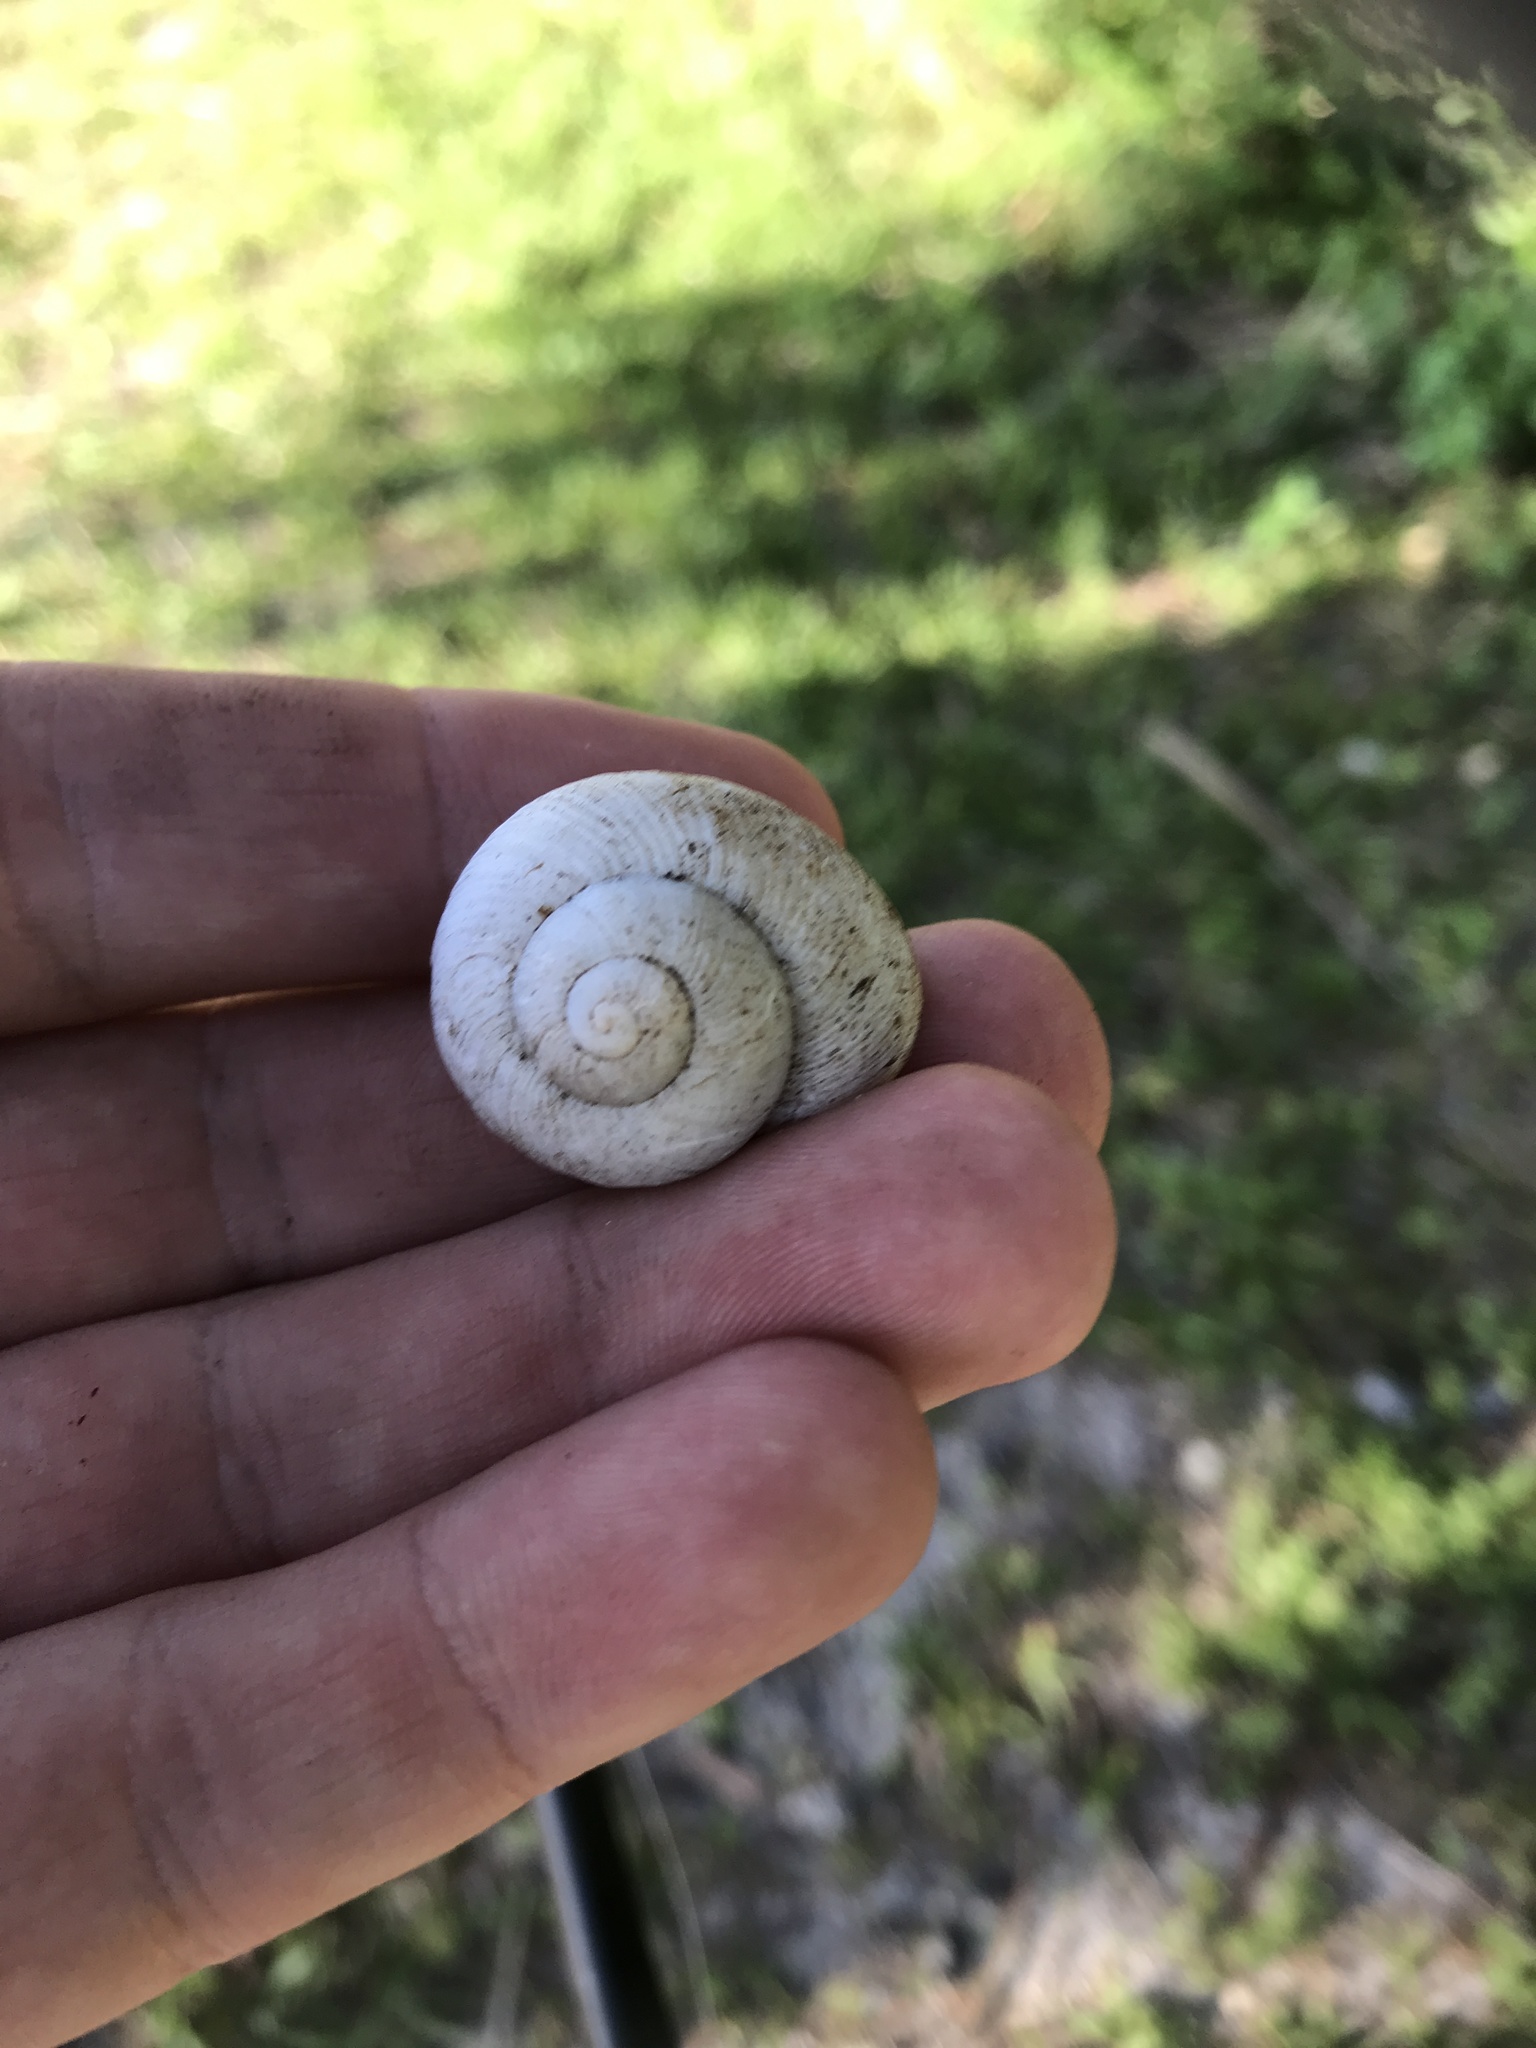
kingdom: Animalia
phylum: Mollusca
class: Gastropoda
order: Stylommatophora
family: Zachrysiidae
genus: Zachrysia
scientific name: Zachrysia provisoria
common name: Garden zachrysia
